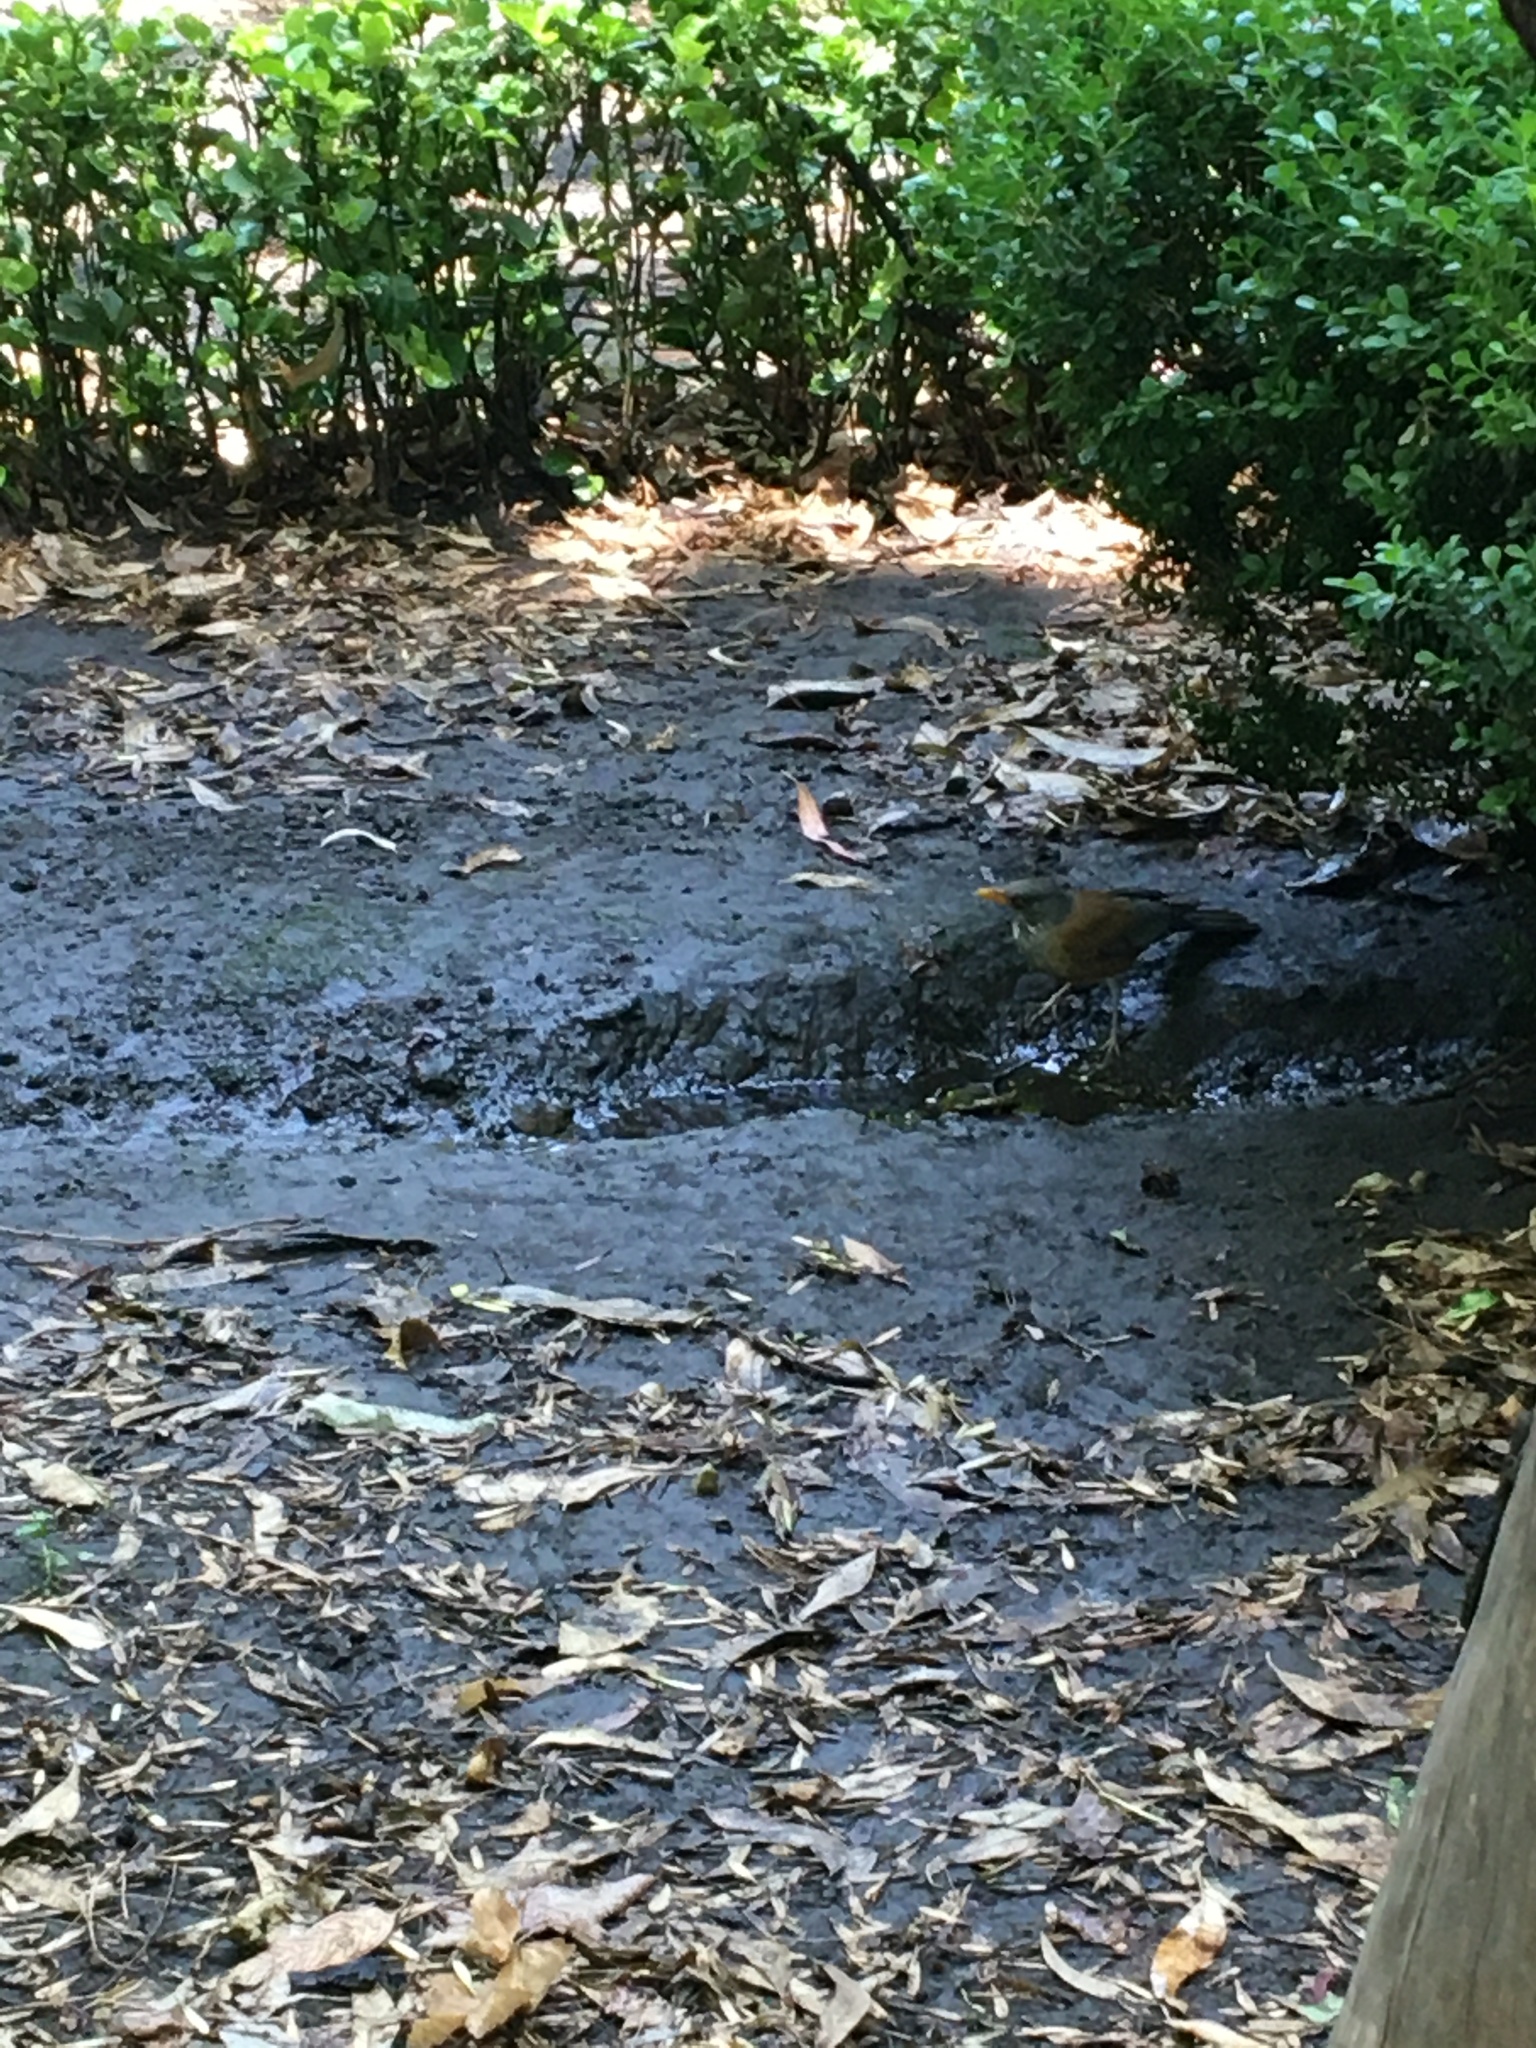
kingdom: Animalia
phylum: Chordata
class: Aves
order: Passeriformes
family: Turdidae
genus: Turdus
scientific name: Turdus rufopalliatus
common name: Rufous-backed robin
